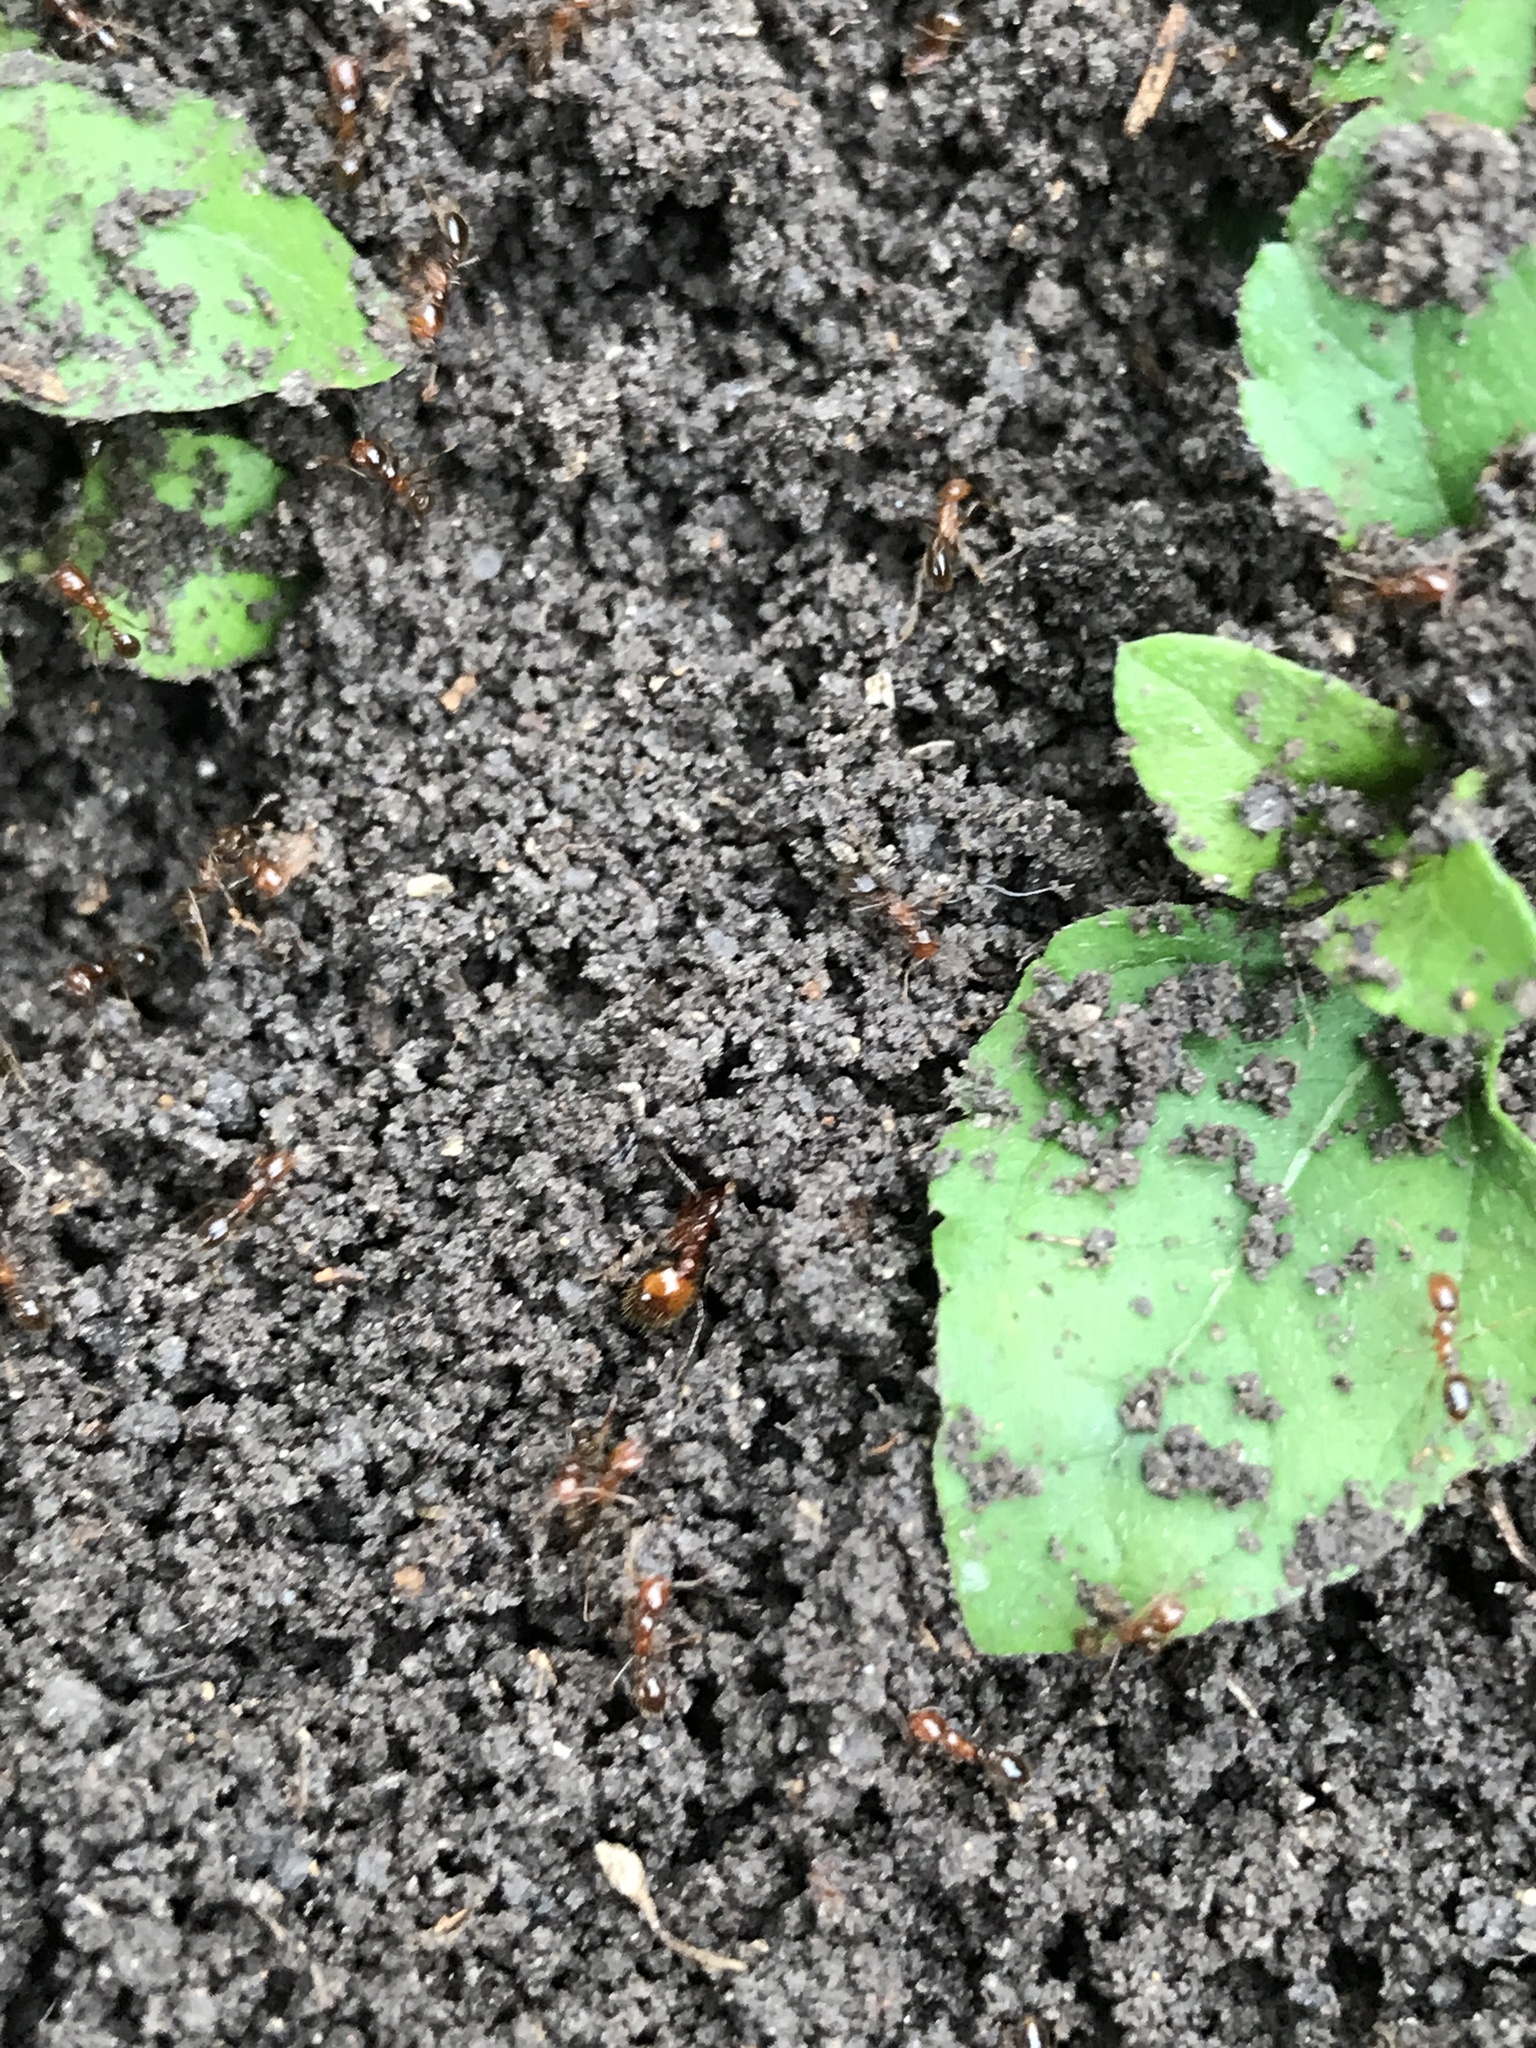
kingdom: Animalia
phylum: Arthropoda
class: Insecta
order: Hymenoptera
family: Formicidae
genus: Solenopsis
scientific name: Solenopsis geminata
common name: Tropical fire ant
